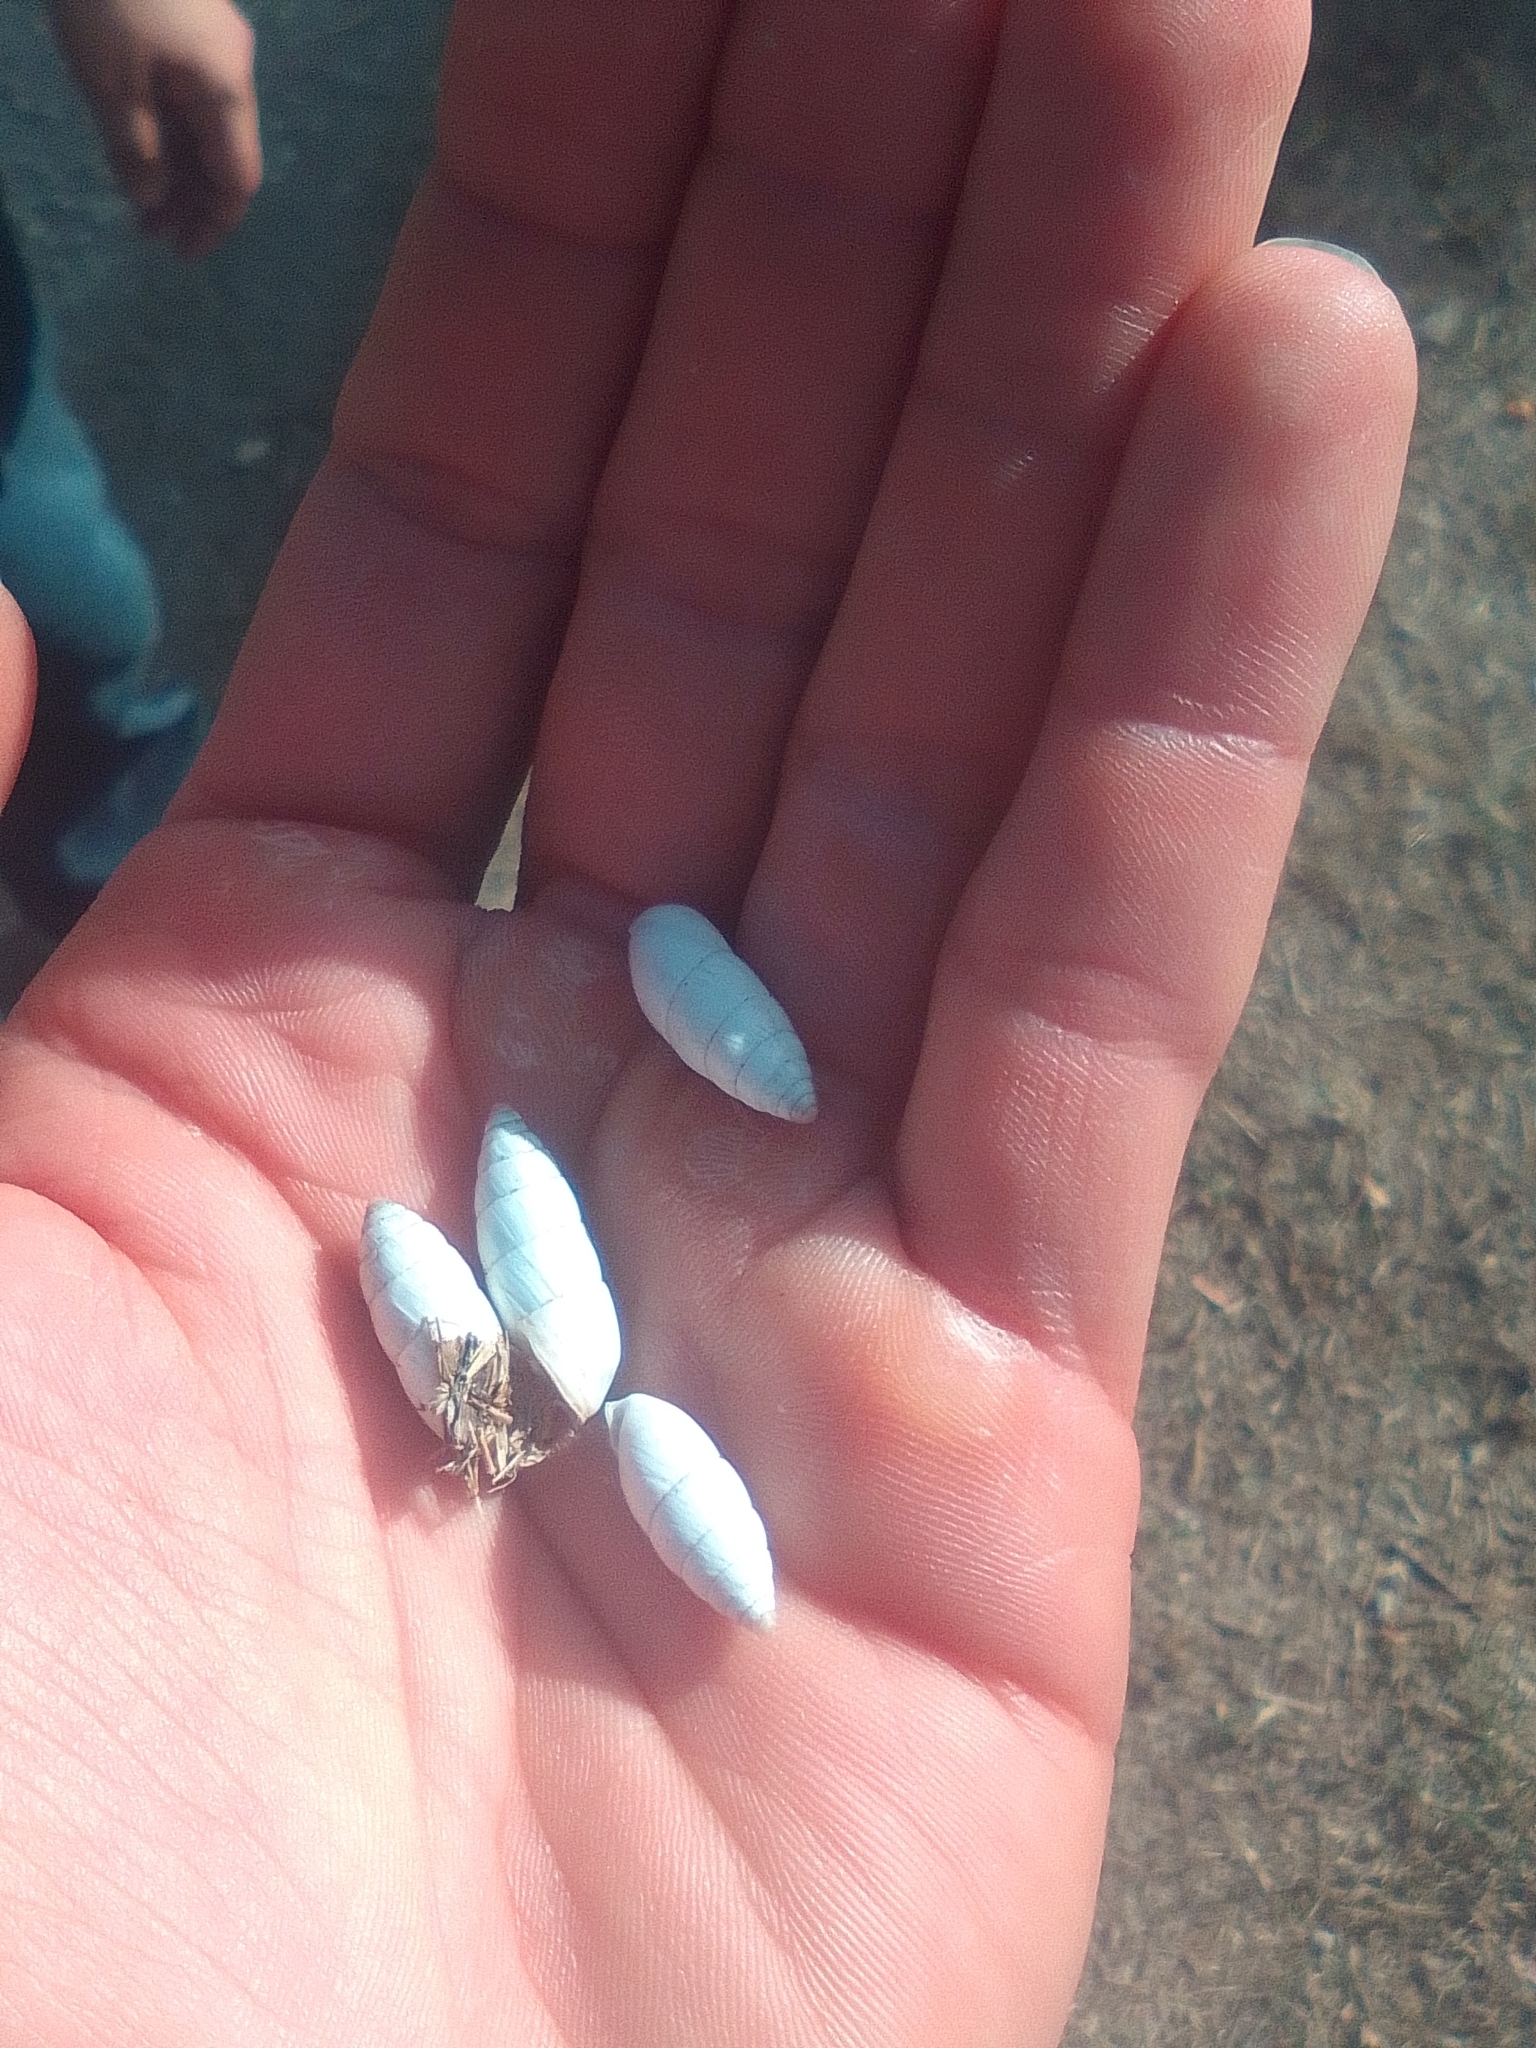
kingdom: Animalia
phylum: Mollusca
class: Gastropoda
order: Stylommatophora
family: Enidae
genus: Brephulopsis
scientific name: Brephulopsis cylindrica
